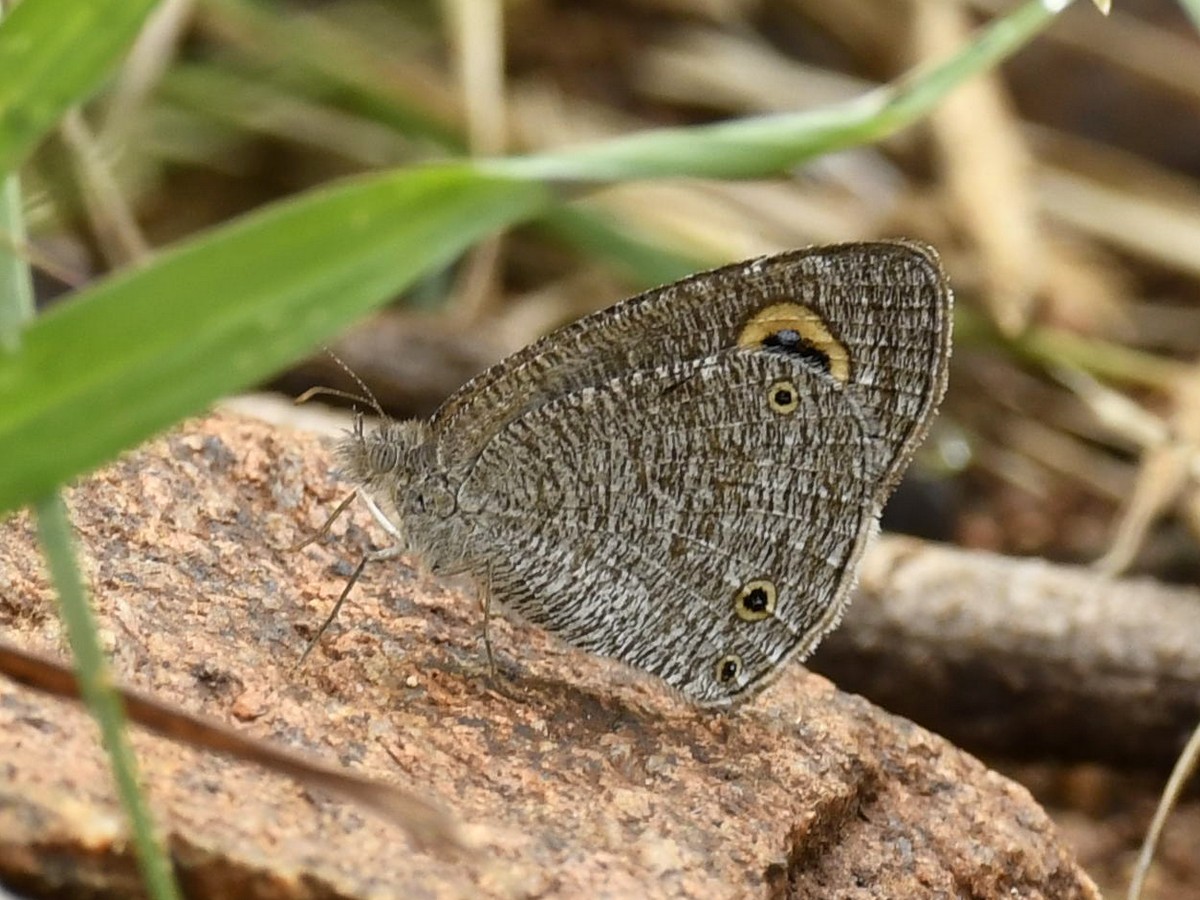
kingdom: Animalia
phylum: Arthropoda
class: Insecta
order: Lepidoptera
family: Nymphalidae
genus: Ypthima
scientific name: Ypthima asterope
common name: African ringlet
